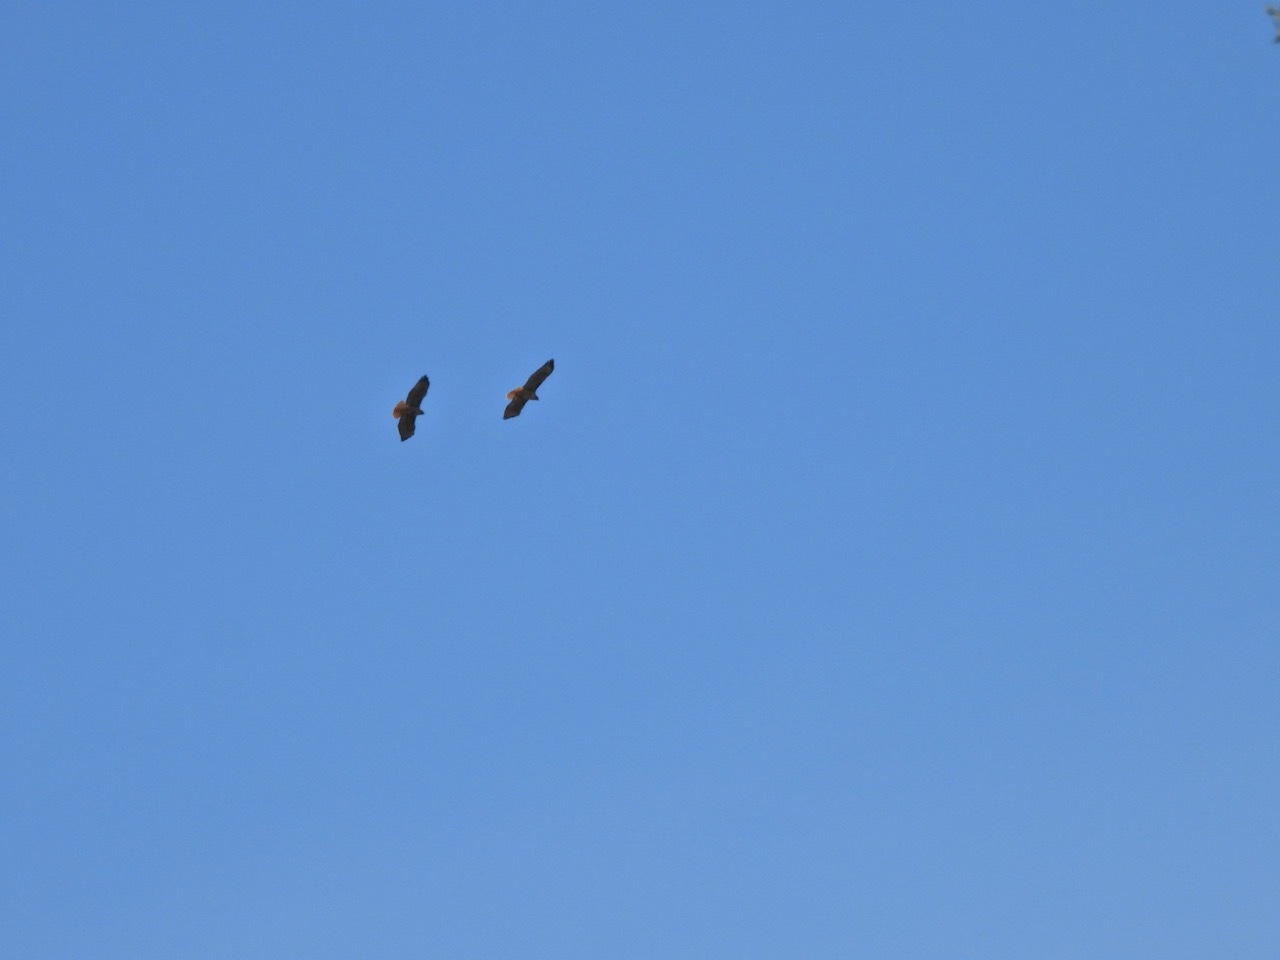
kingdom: Animalia
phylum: Chordata
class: Aves
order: Accipitriformes
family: Accipitridae
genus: Buteo
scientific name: Buteo jamaicensis
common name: Red-tailed hawk
